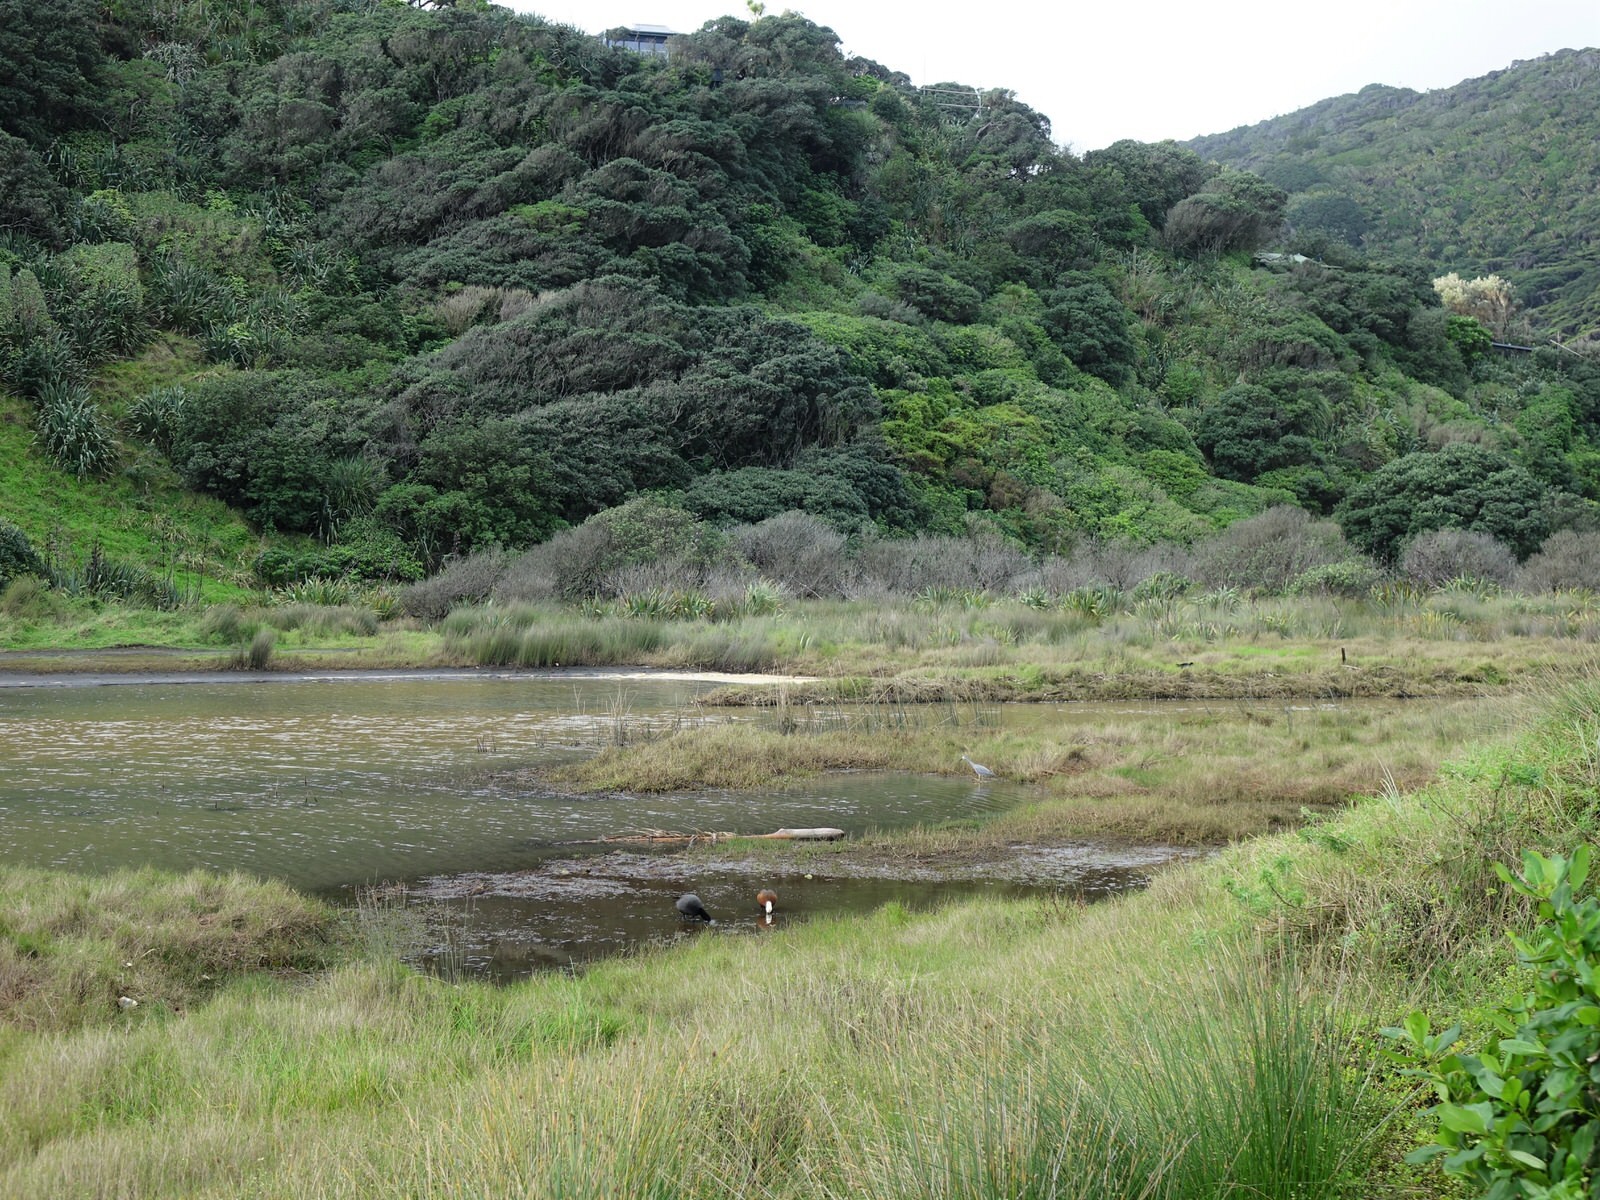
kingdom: Animalia
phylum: Chordata
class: Aves
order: Anseriformes
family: Anatidae
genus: Tadorna
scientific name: Tadorna variegata
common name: Paradise shelduck
